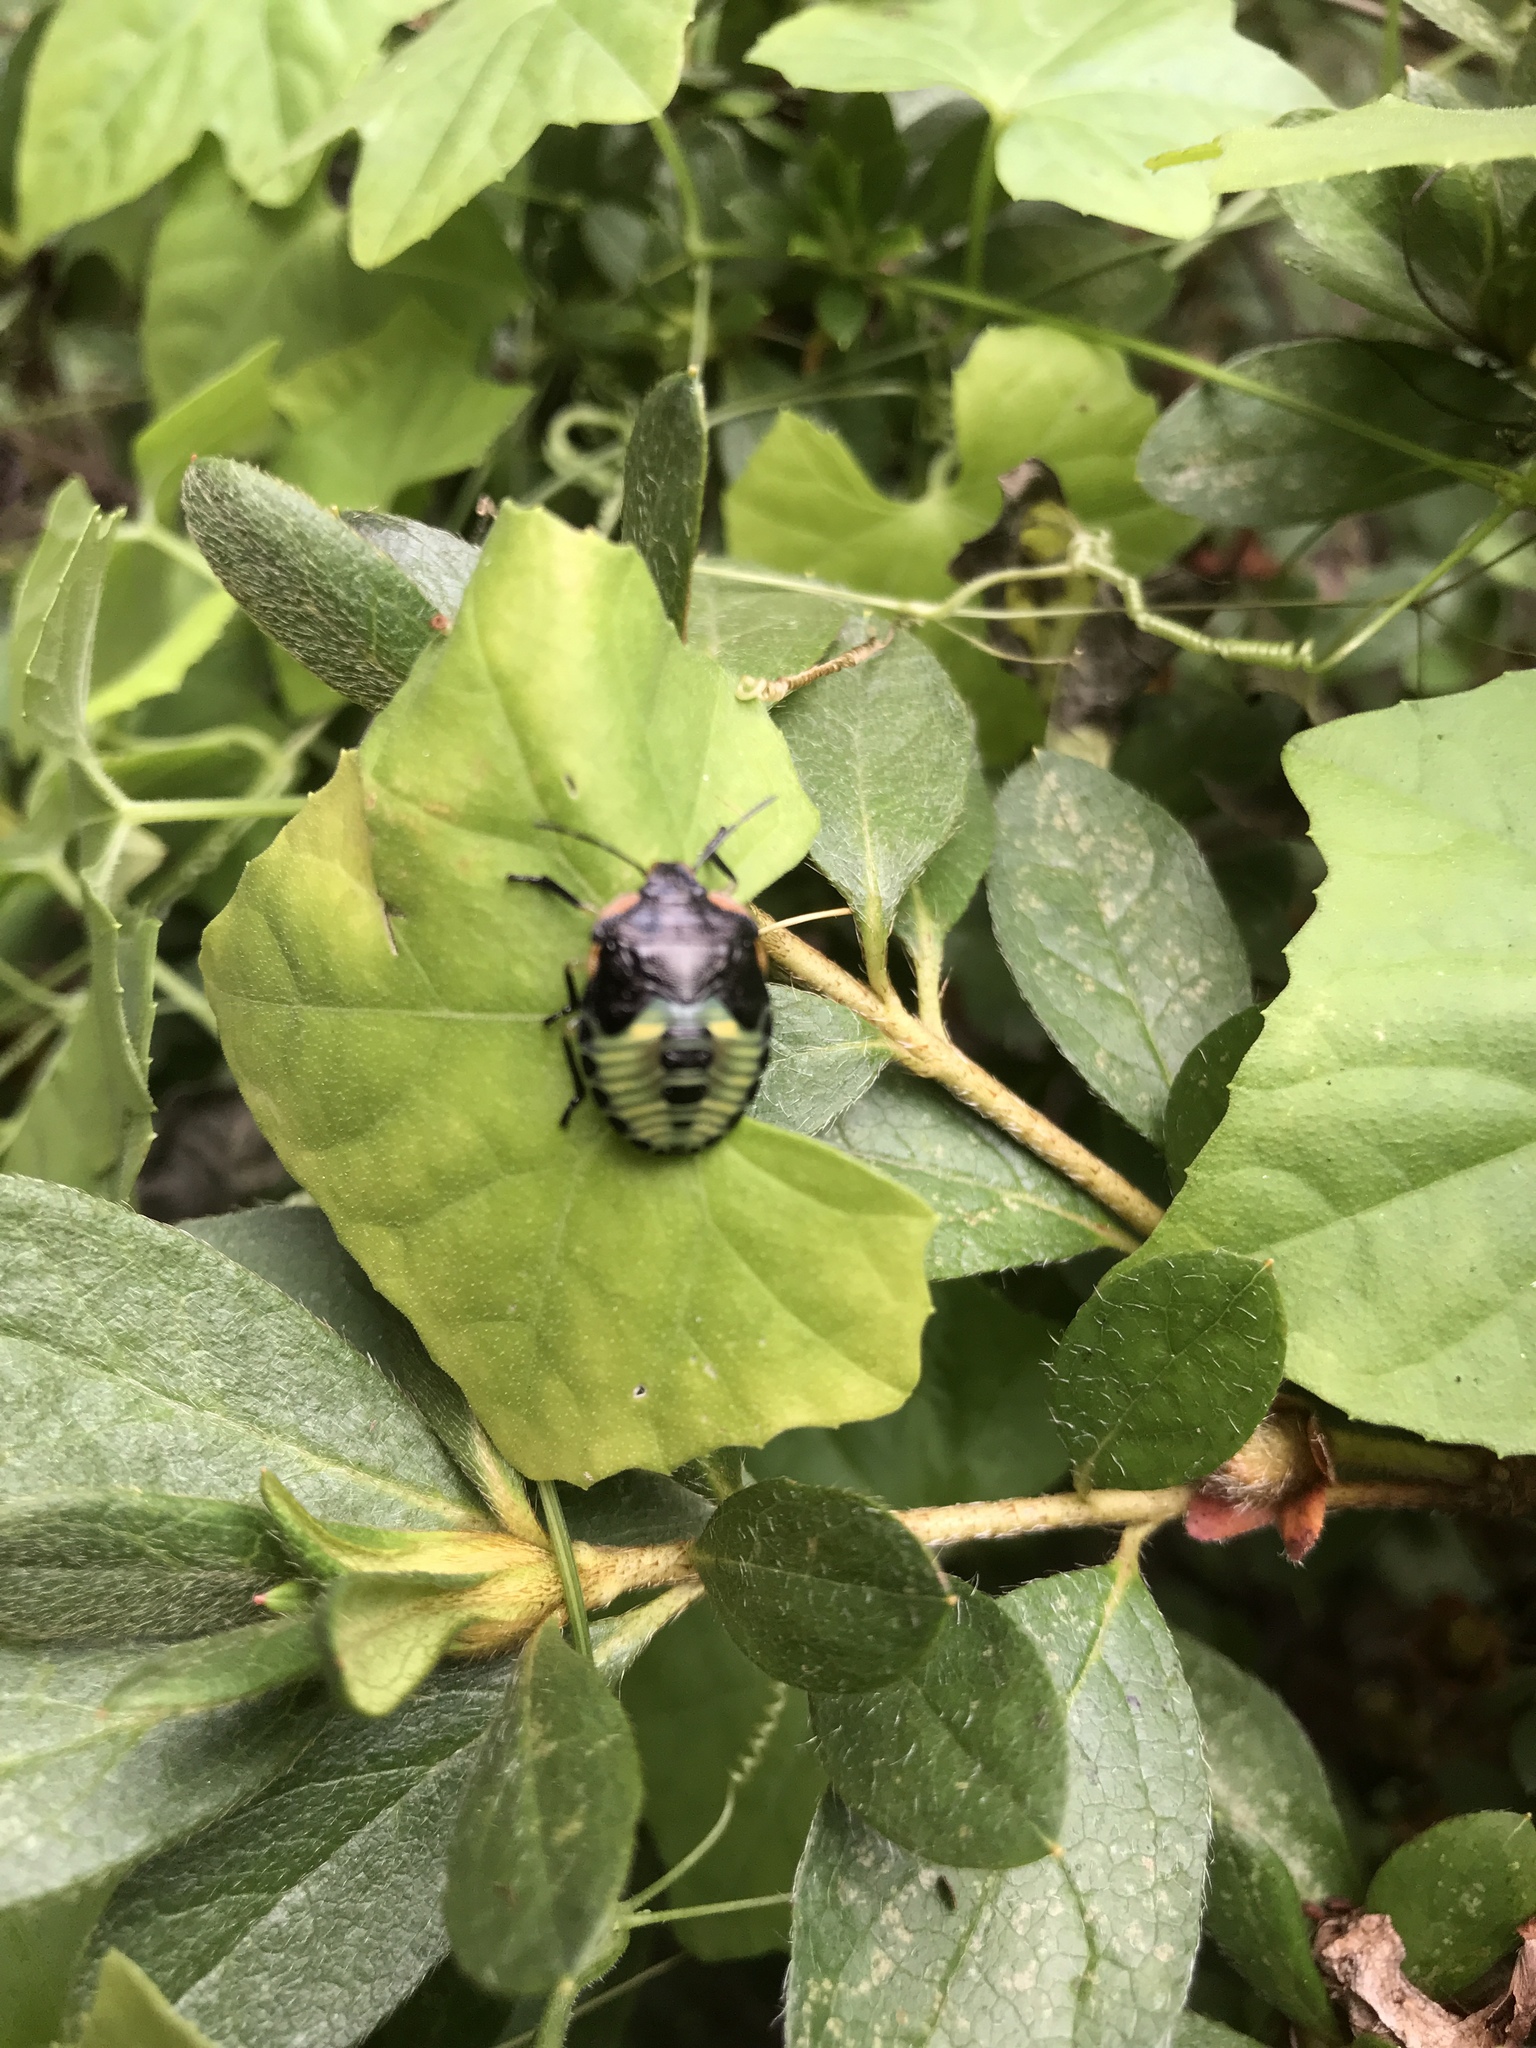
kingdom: Animalia
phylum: Arthropoda
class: Insecta
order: Hemiptera
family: Pentatomidae
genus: Chinavia
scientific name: Chinavia hilaris
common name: Green stink bug
